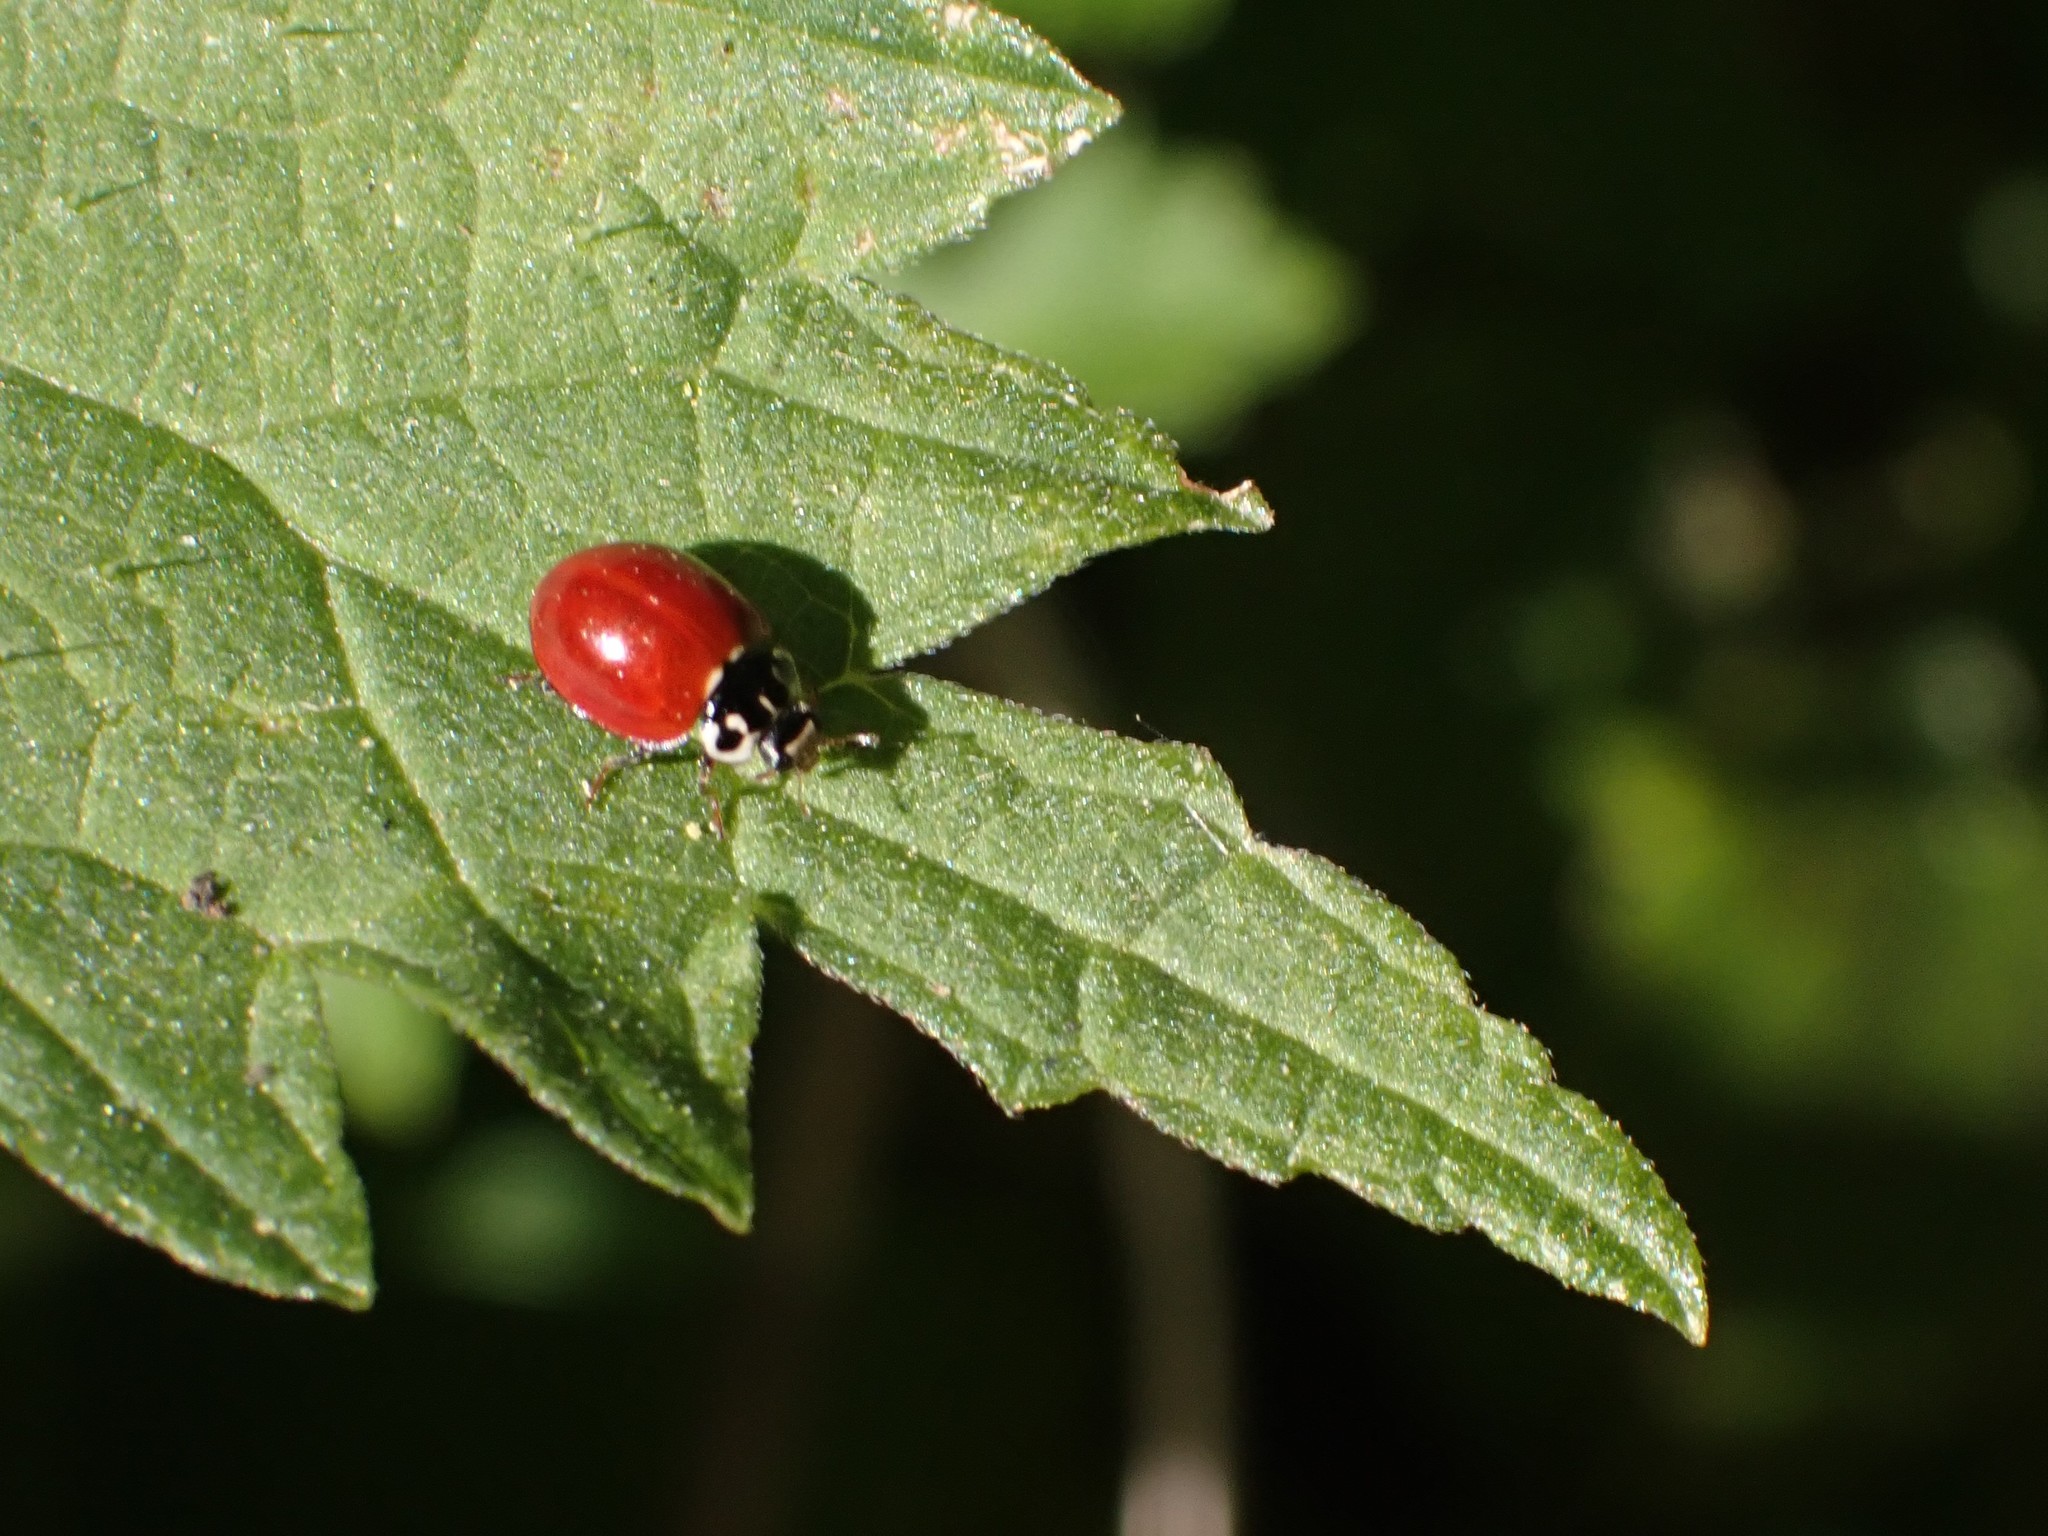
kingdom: Animalia
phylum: Arthropoda
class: Insecta
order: Coleoptera
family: Coccinellidae
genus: Cycloneda
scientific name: Cycloneda polita
